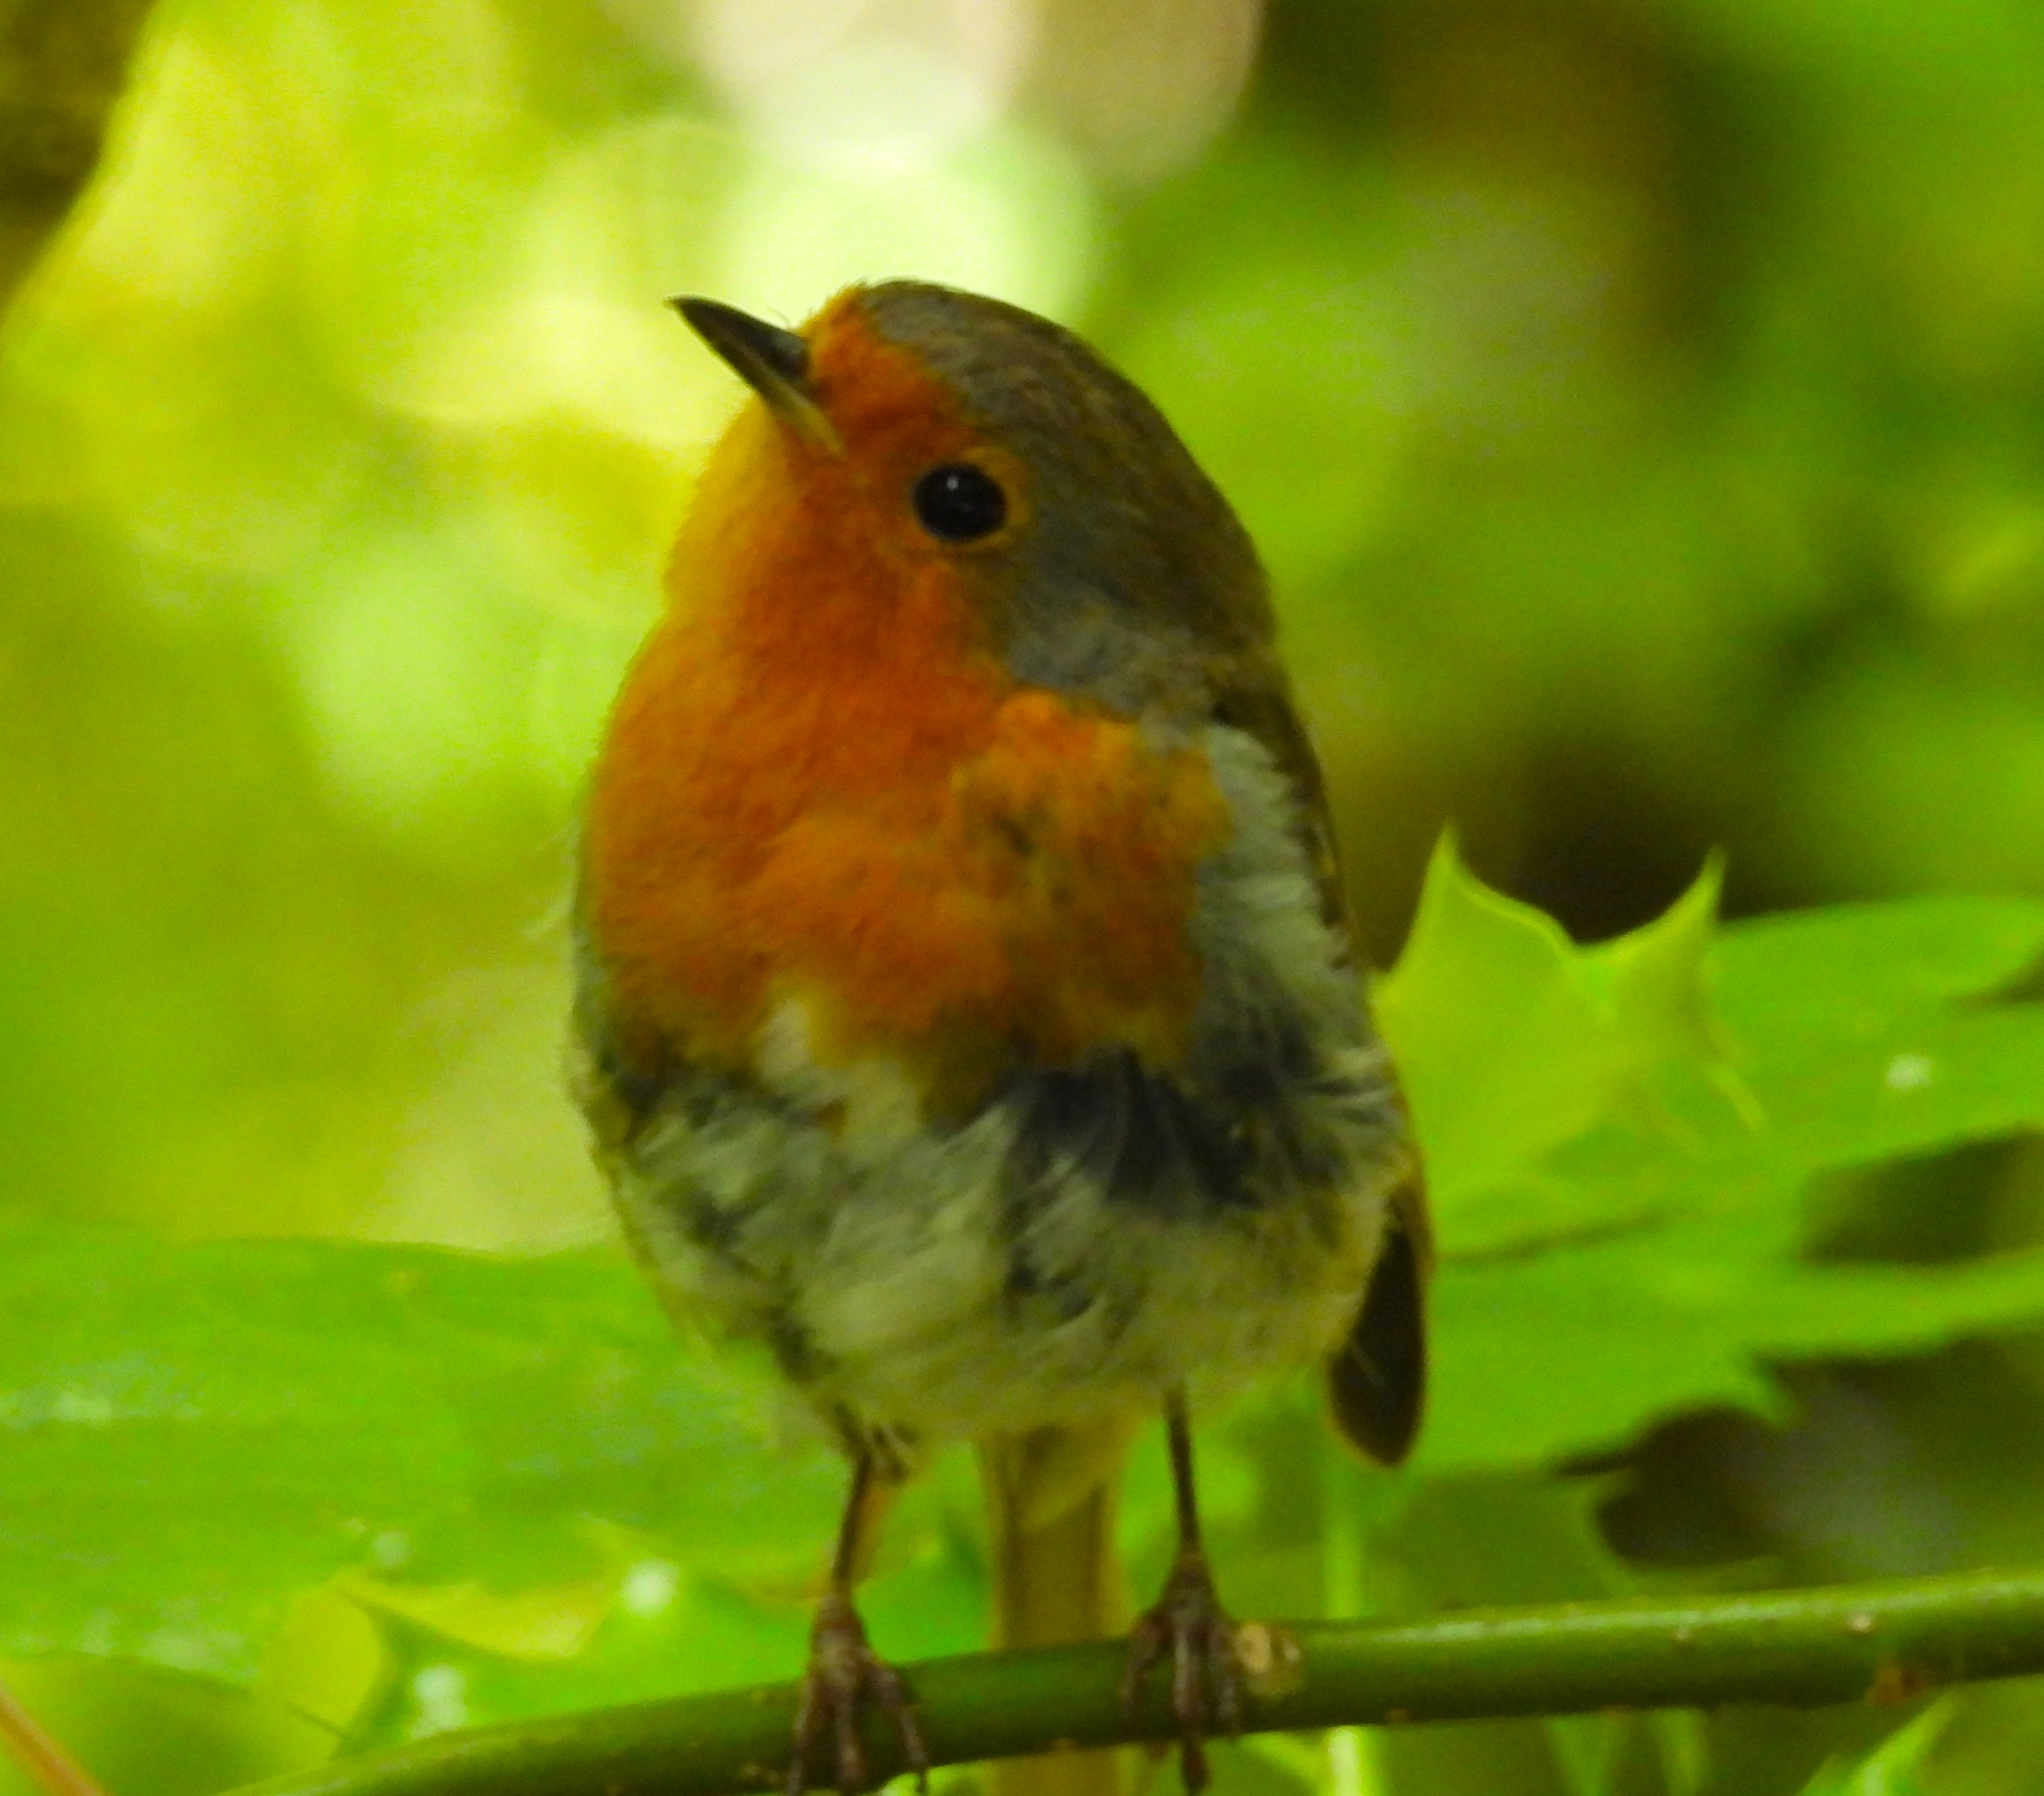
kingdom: Animalia
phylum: Chordata
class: Aves
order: Passeriformes
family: Muscicapidae
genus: Erithacus
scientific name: Erithacus rubecula
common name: European robin
